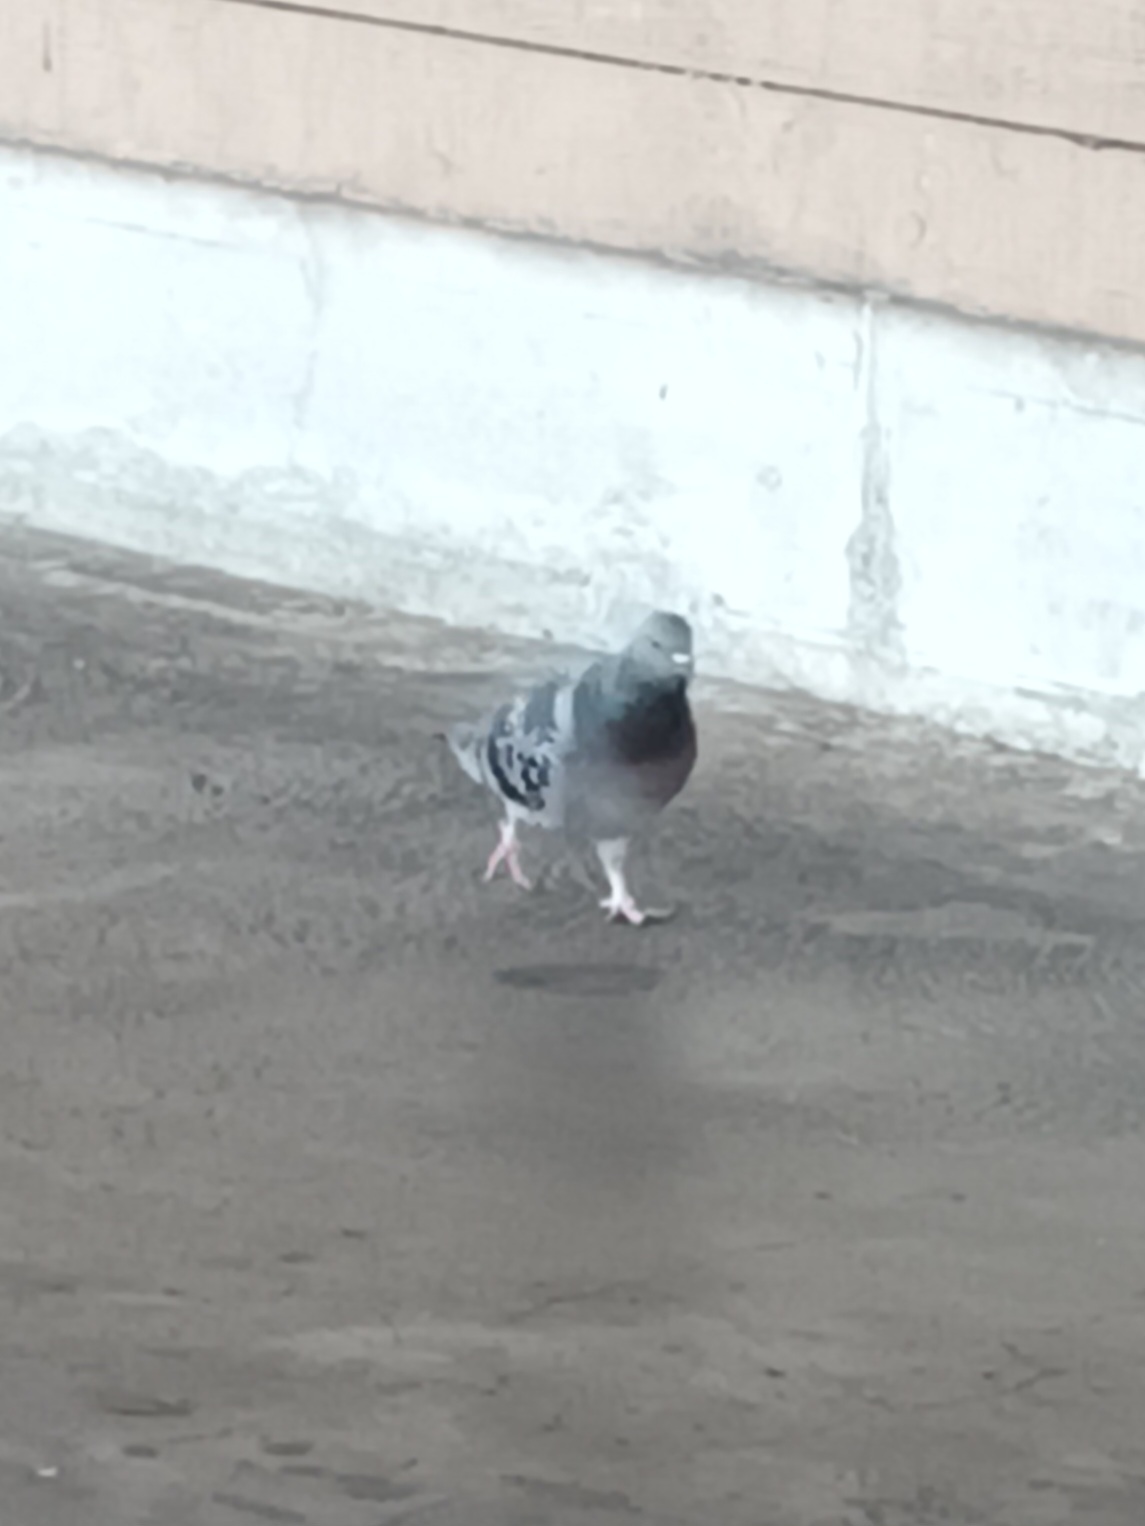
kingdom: Animalia
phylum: Chordata
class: Aves
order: Columbiformes
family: Columbidae
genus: Columba
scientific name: Columba livia
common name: Rock pigeon
